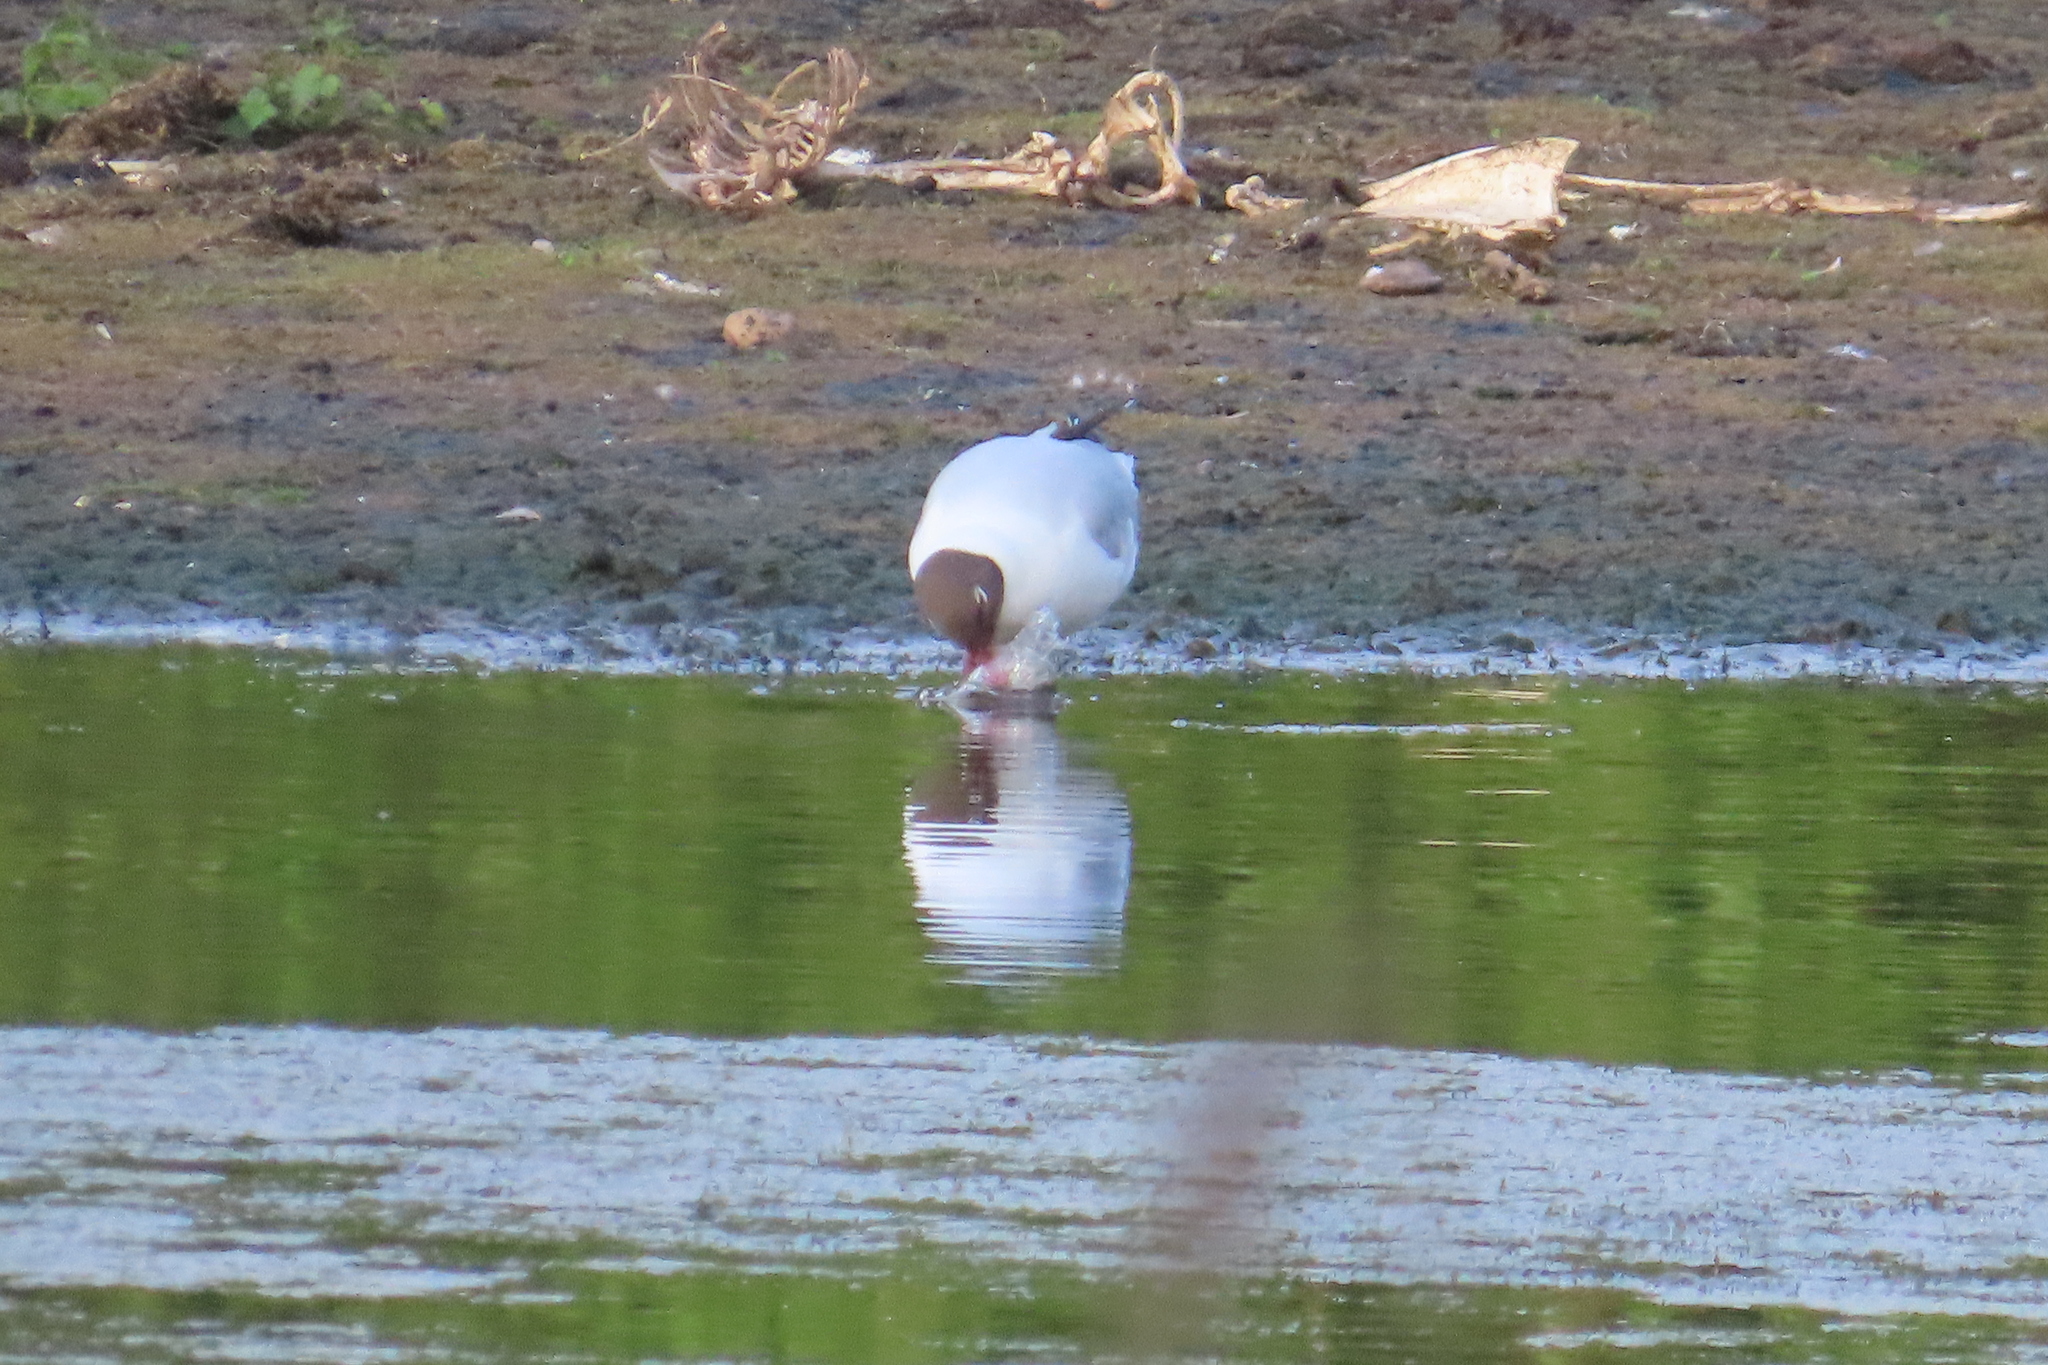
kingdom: Animalia
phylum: Chordata
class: Aves
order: Charadriiformes
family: Laridae
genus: Chroicocephalus
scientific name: Chroicocephalus ridibundus
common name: Black-headed gull
